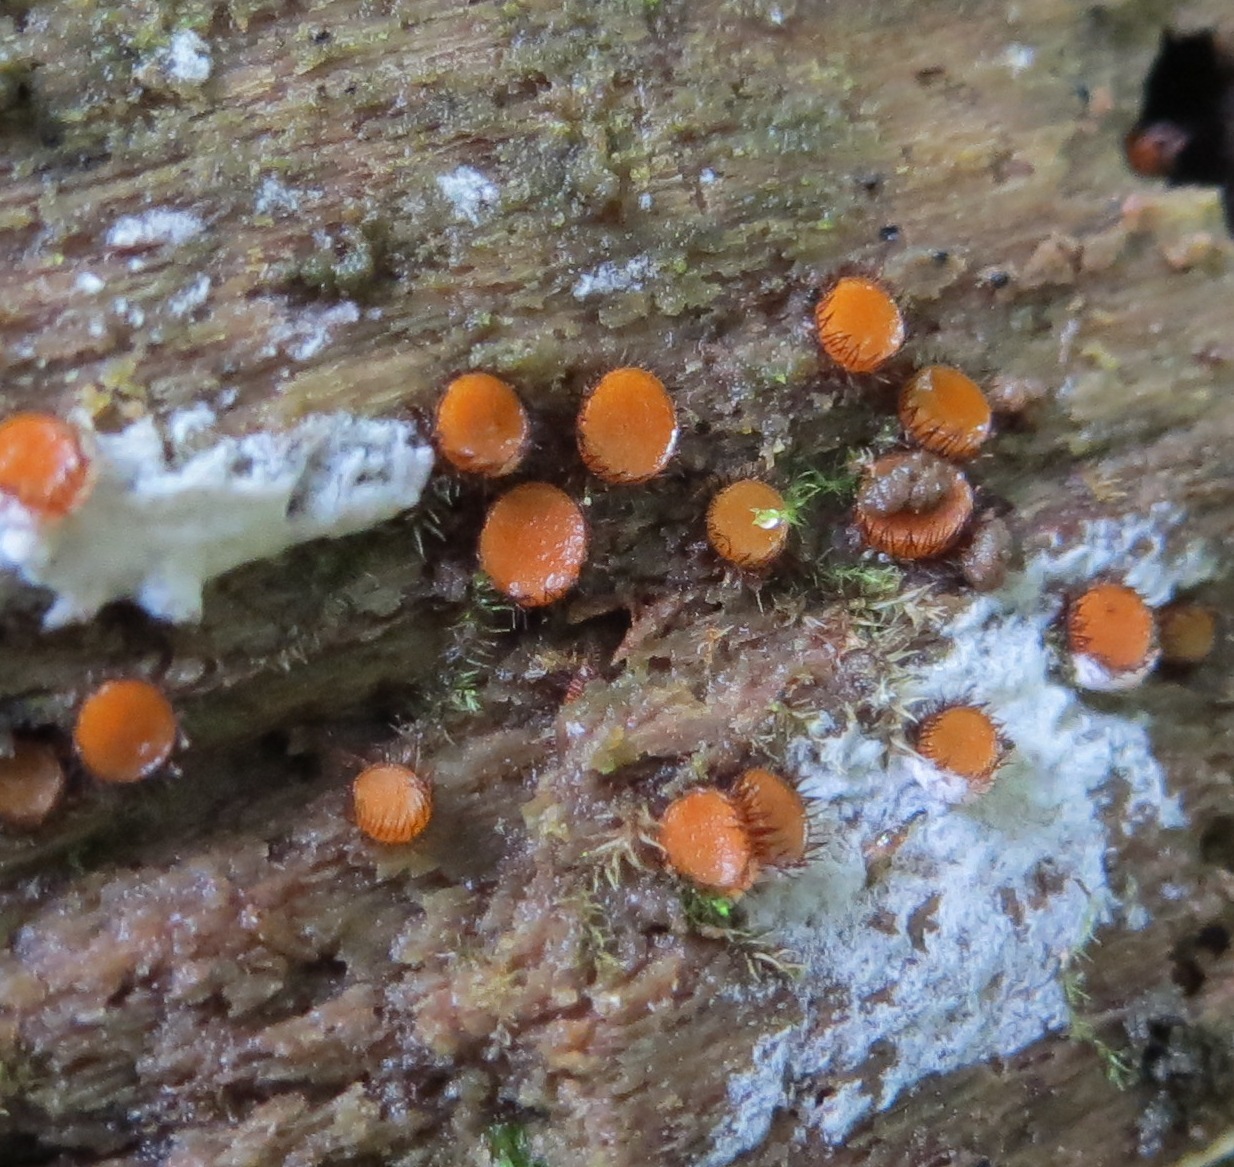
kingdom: Fungi
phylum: Ascomycota
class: Pezizomycetes
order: Pezizales
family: Pyronemataceae
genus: Scutellinia
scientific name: Scutellinia scutellata
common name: Common eyelash
